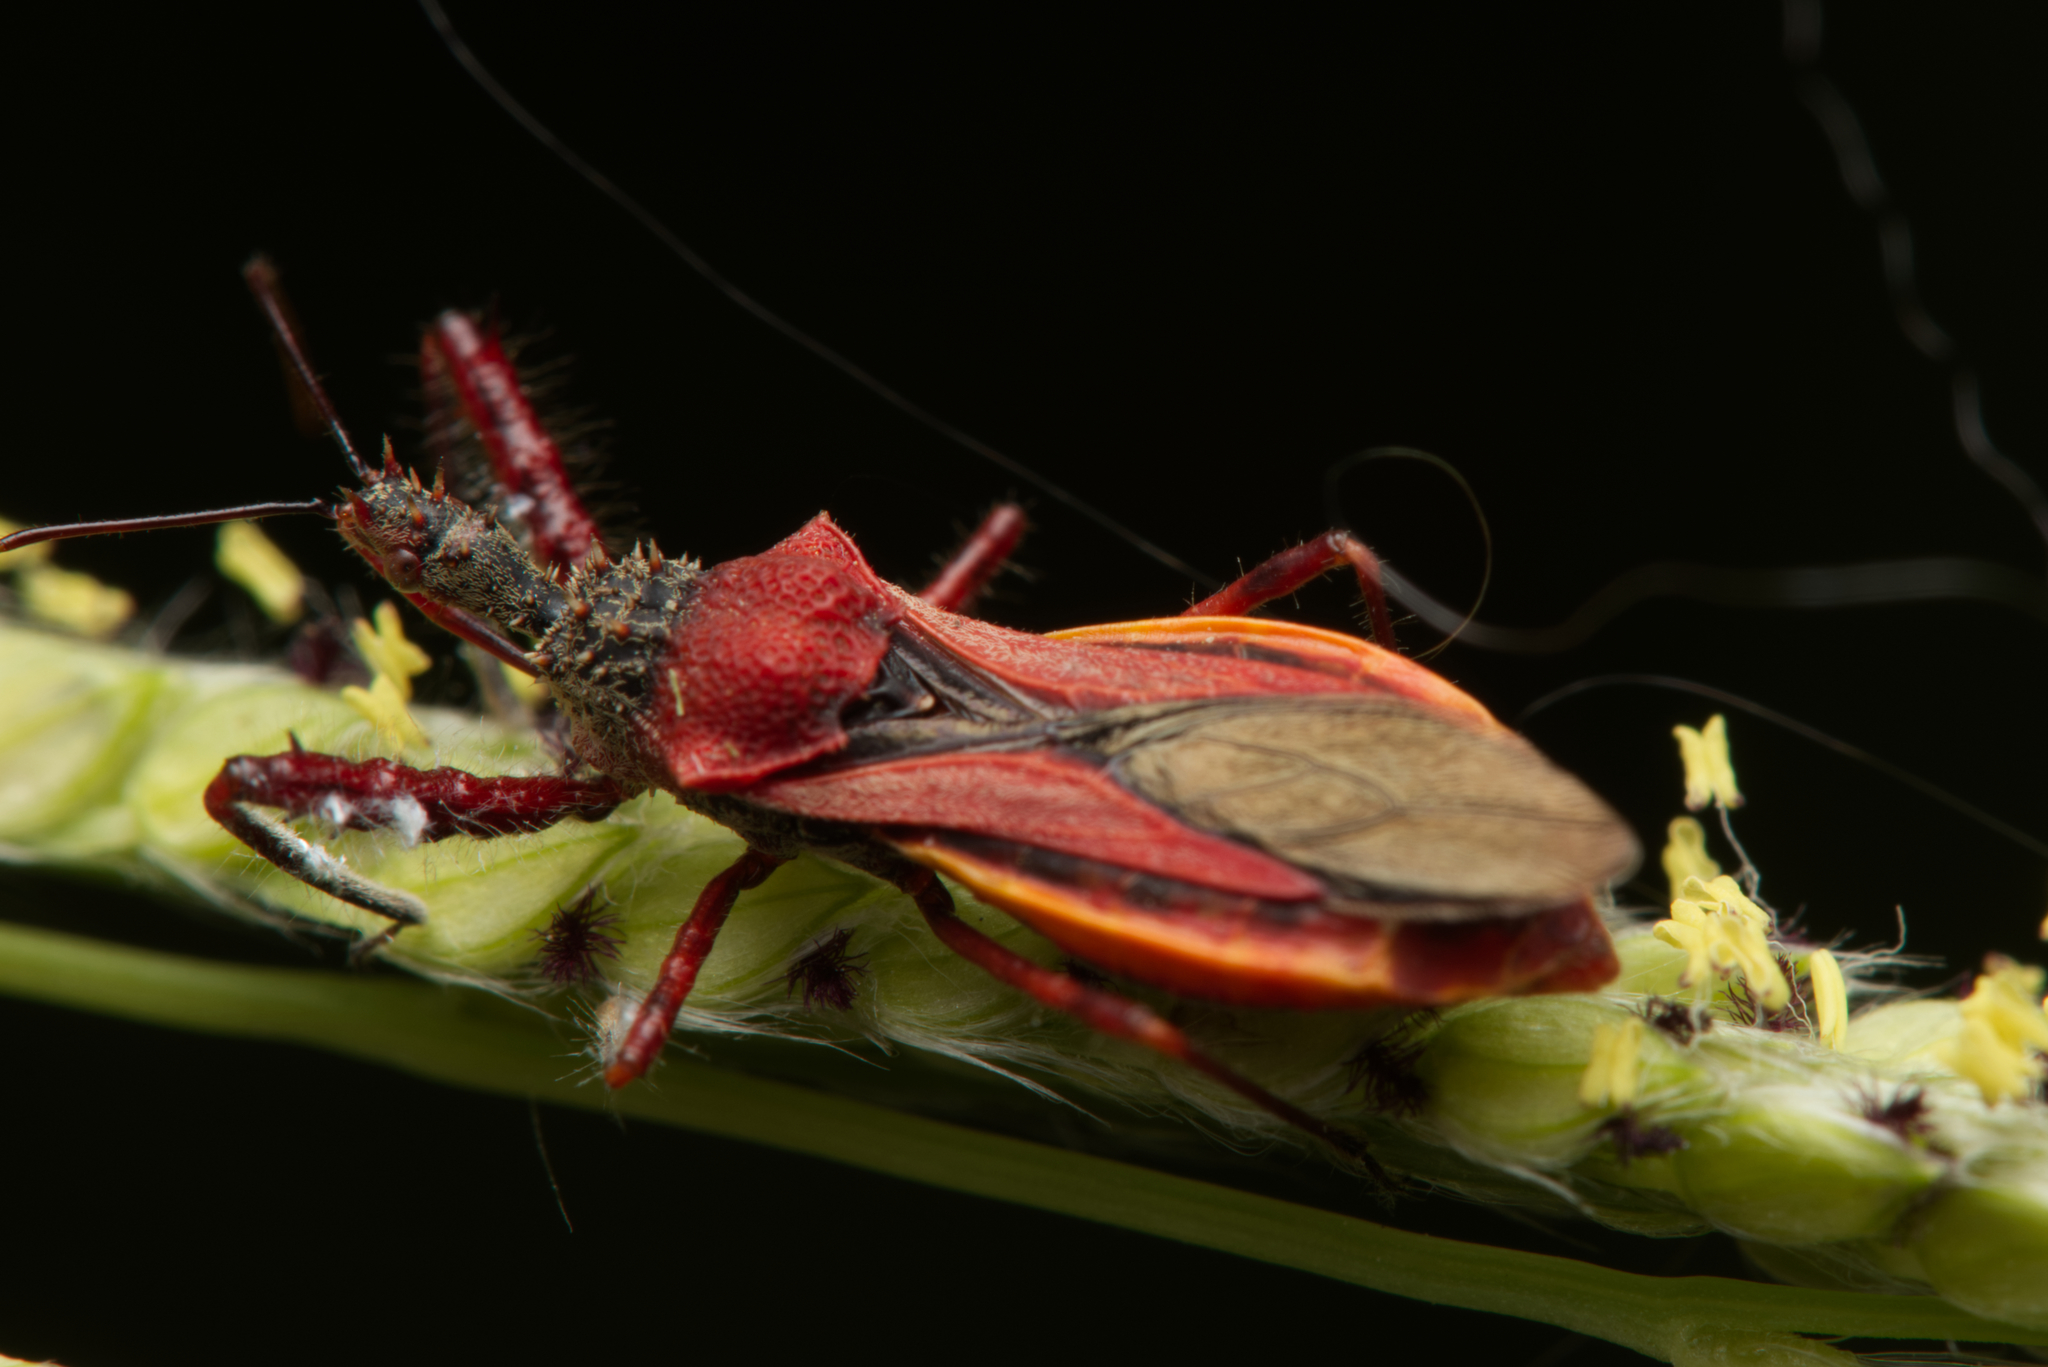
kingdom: Animalia
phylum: Arthropoda
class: Insecta
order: Hemiptera
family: Reduviidae
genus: Scipinia
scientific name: Scipinia arenacea
